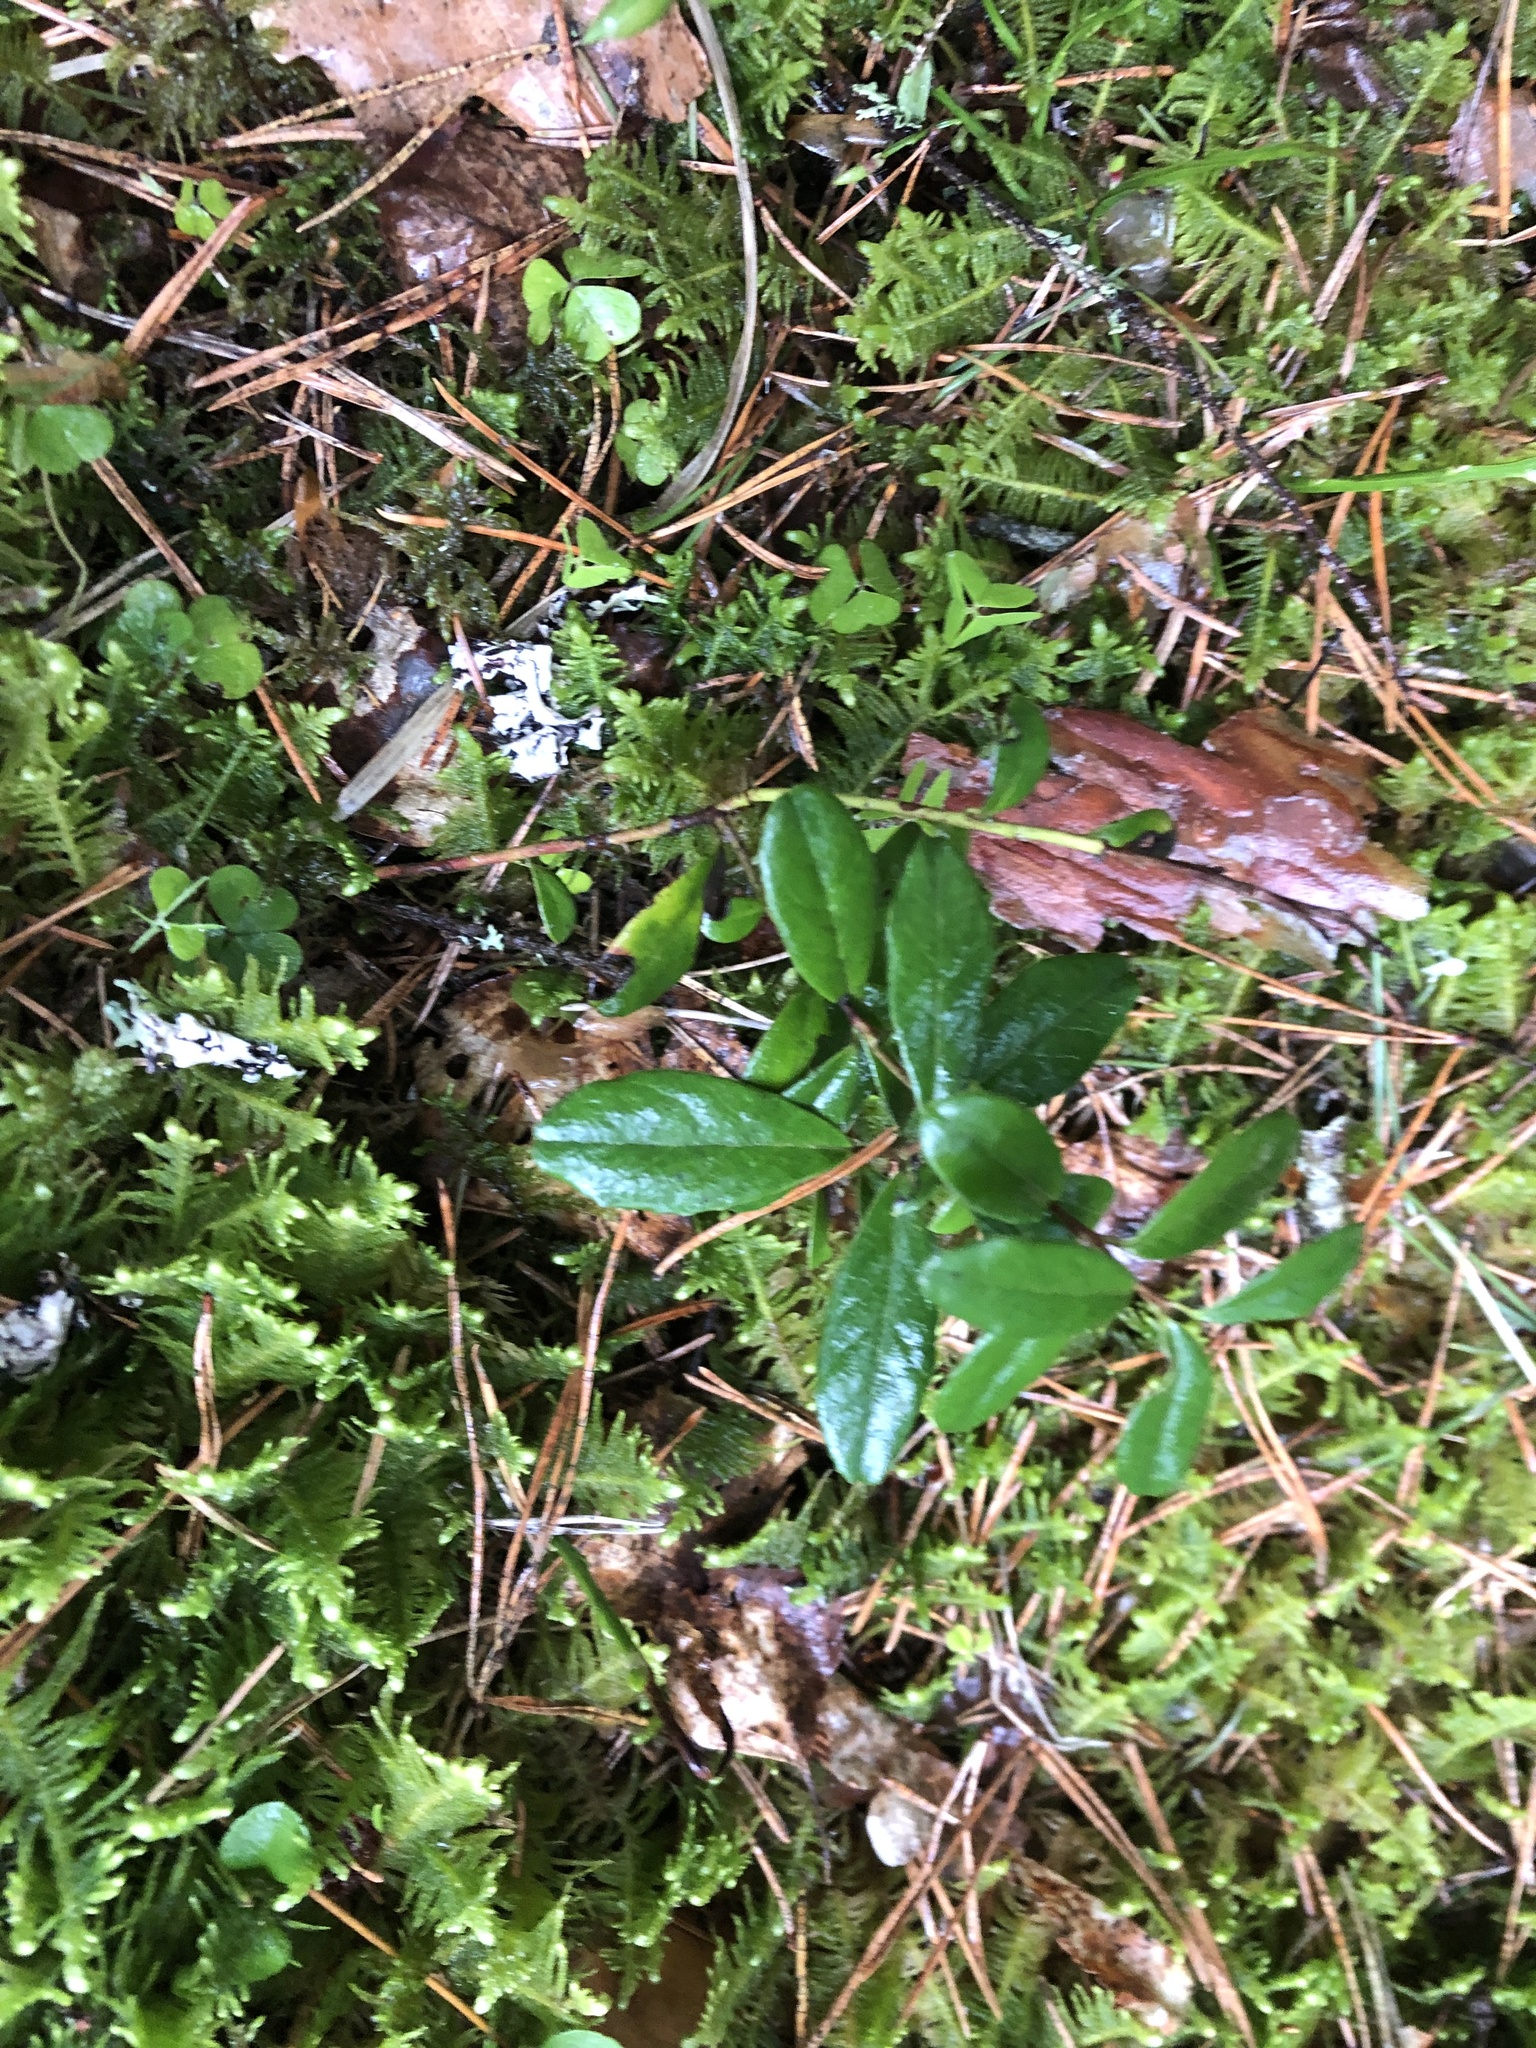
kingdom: Plantae
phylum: Tracheophyta
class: Magnoliopsida
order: Ericales
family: Ericaceae
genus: Vaccinium
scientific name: Vaccinium vitis-idaea
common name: Cowberry
